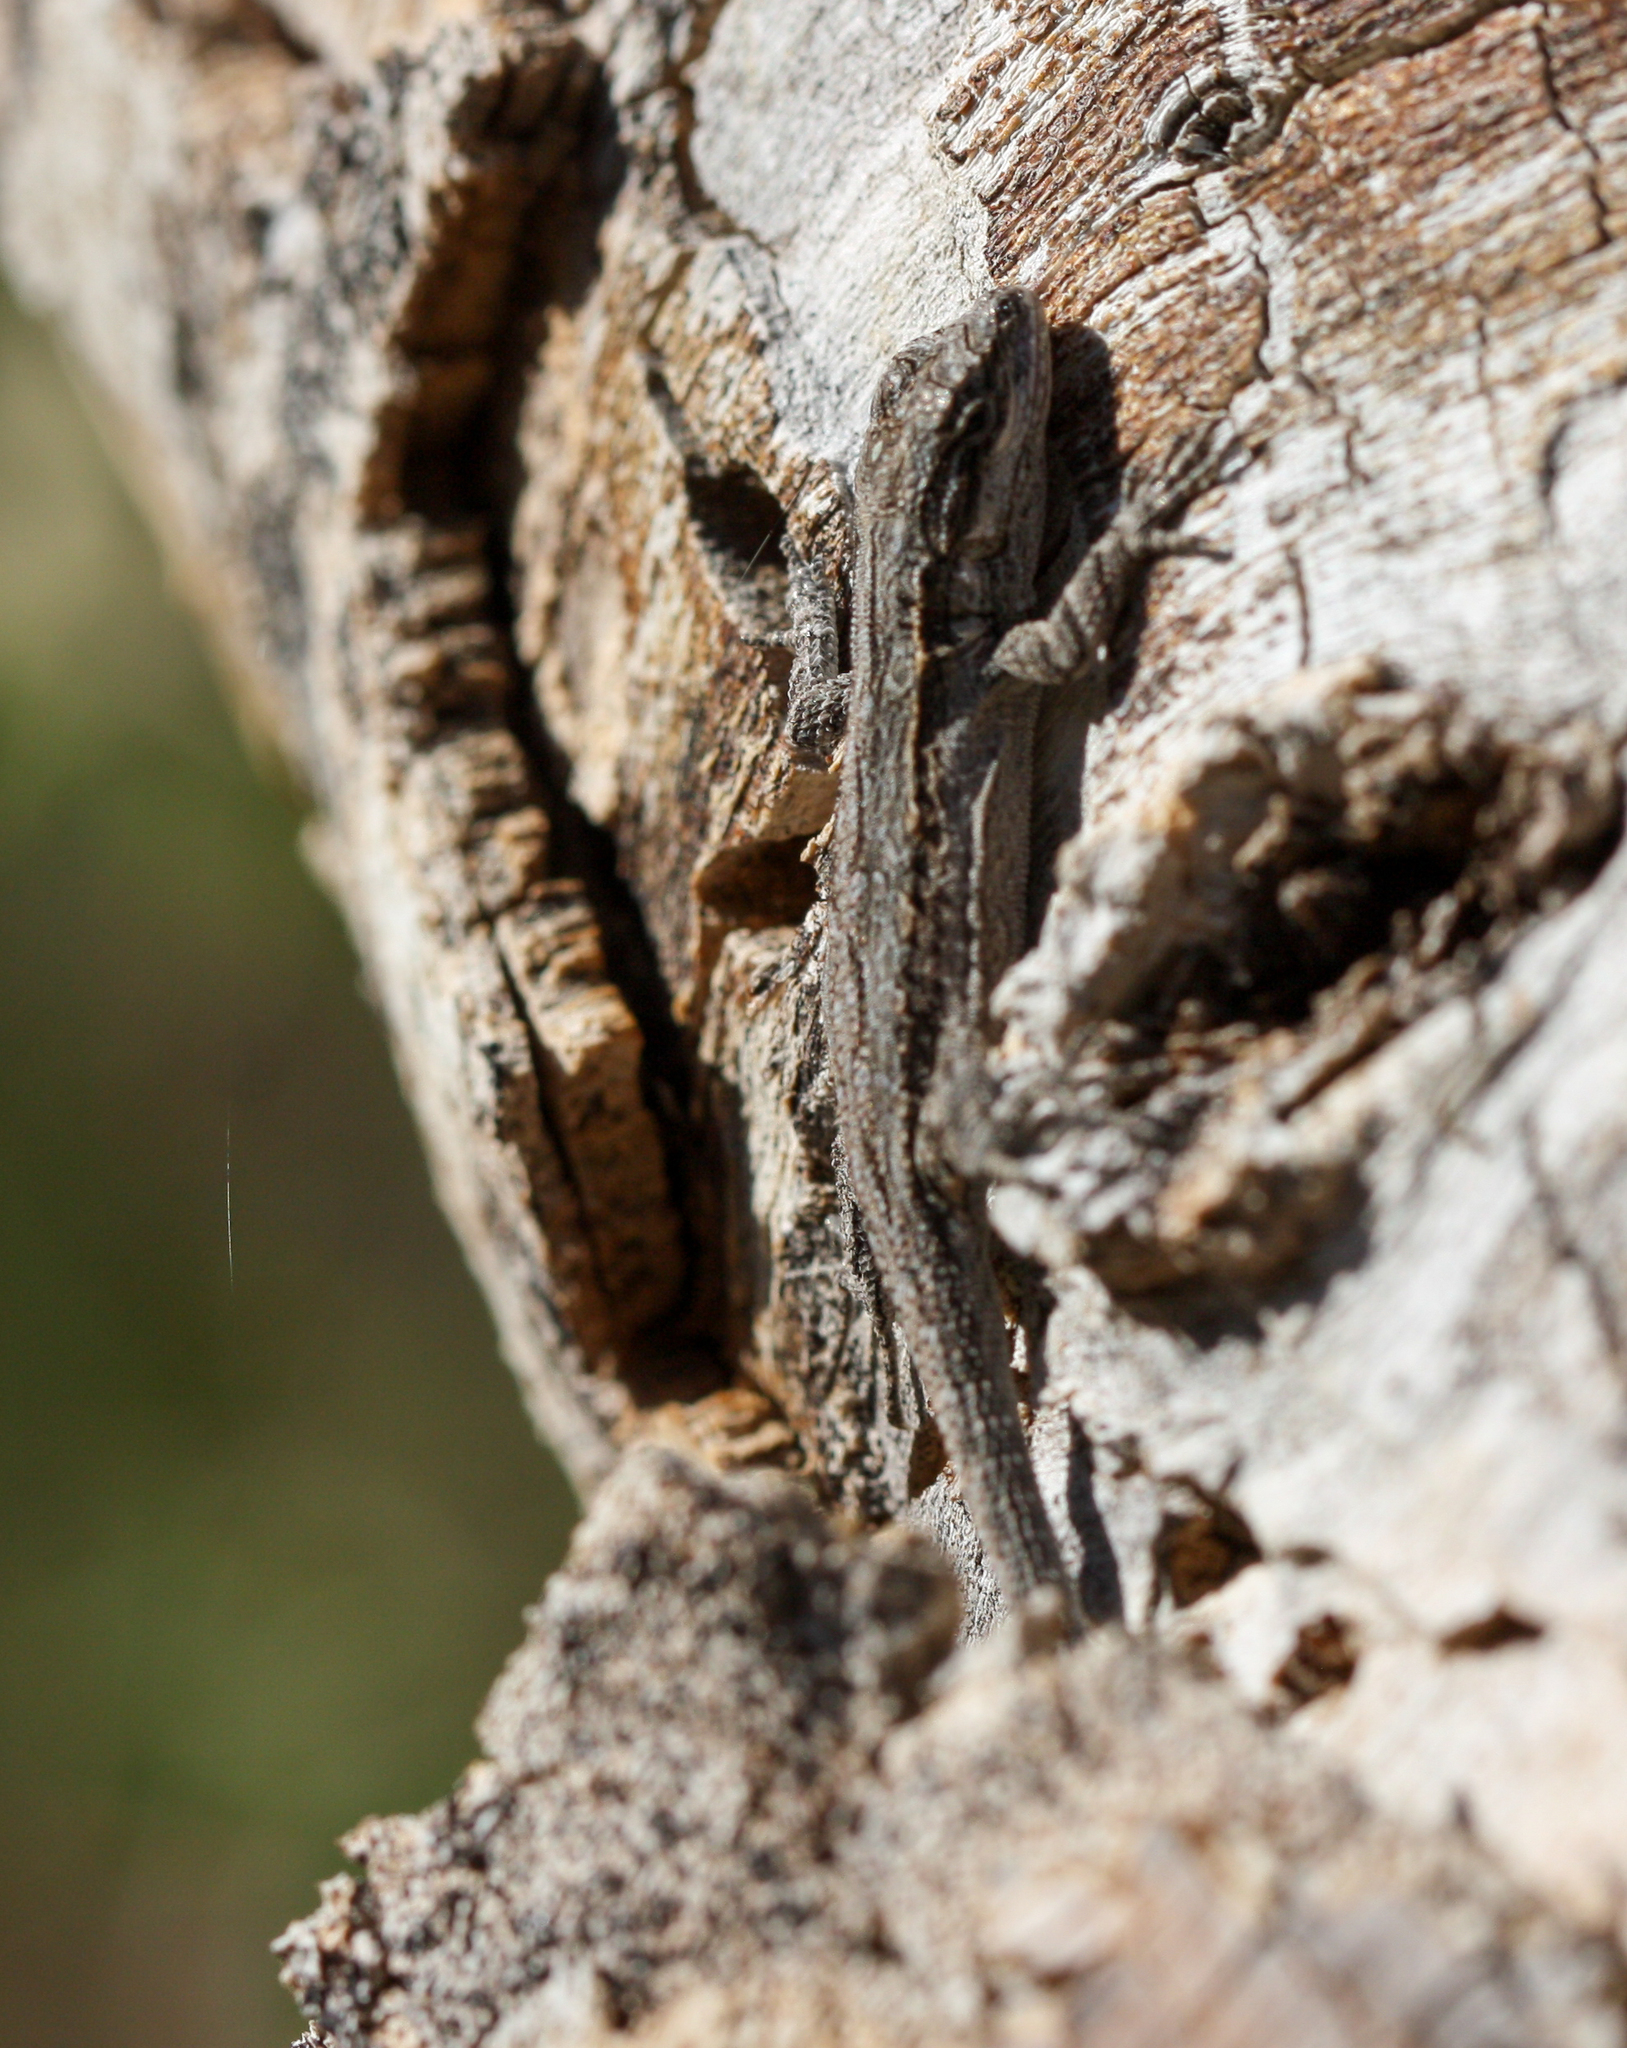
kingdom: Animalia
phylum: Chordata
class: Squamata
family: Phrynosomatidae
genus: Urosaurus
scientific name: Urosaurus ornatus
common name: Ornate tree lizard
